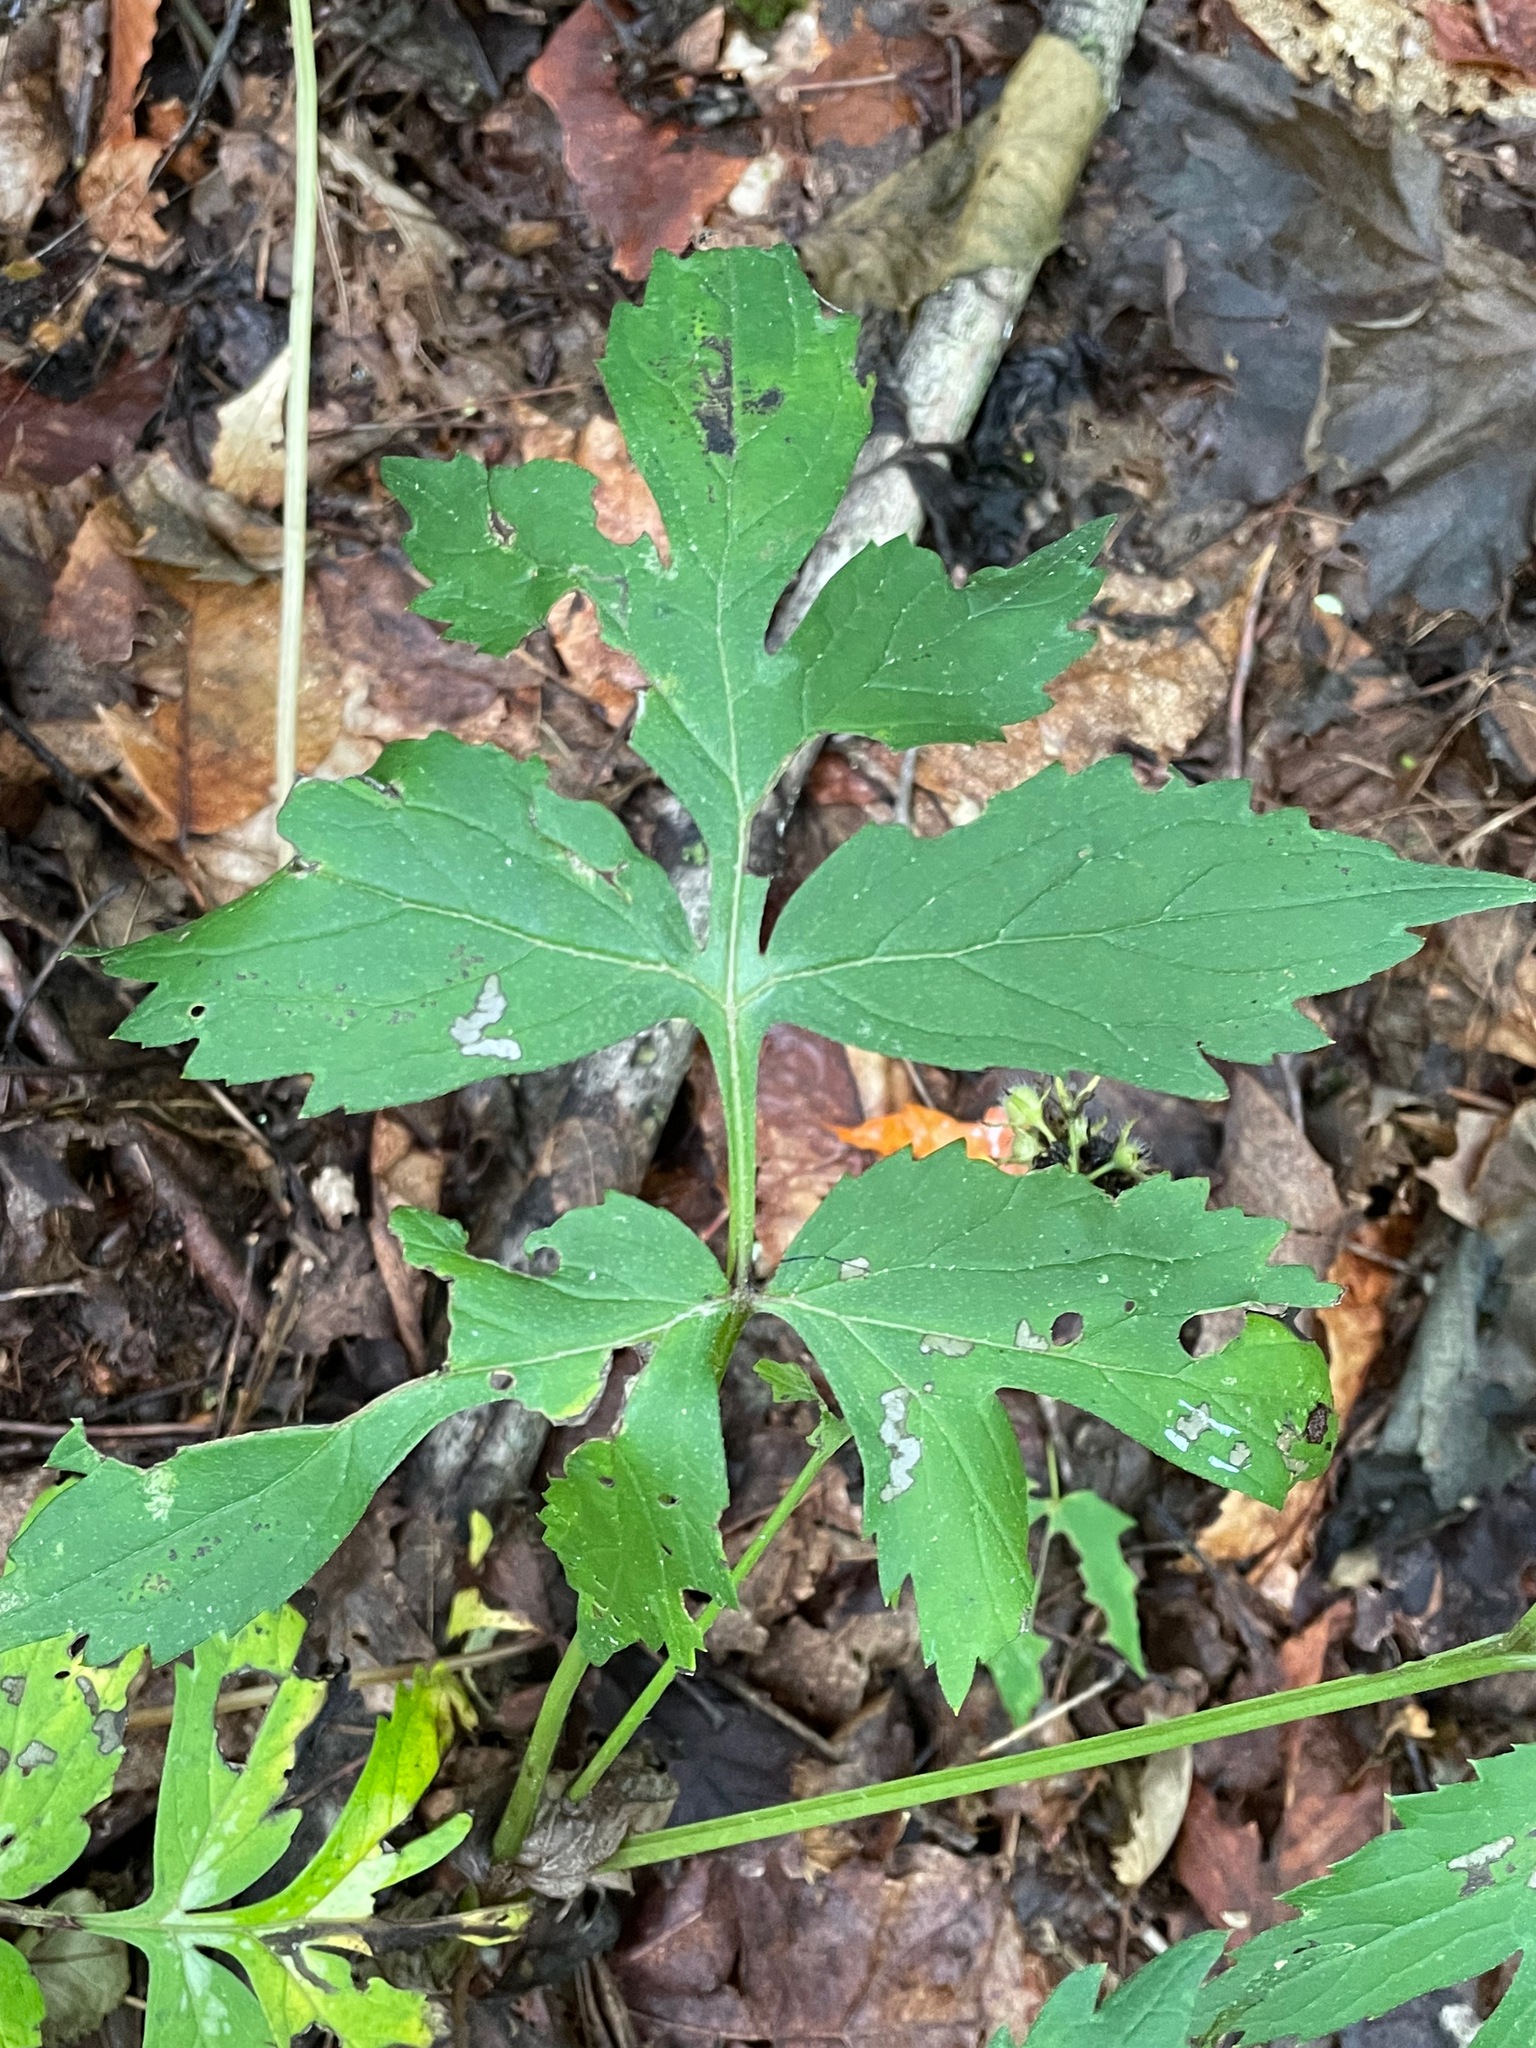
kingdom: Plantae
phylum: Tracheophyta
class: Magnoliopsida
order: Boraginales
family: Hydrophyllaceae
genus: Hydrophyllum
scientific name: Hydrophyllum virginianum
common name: Virginia waterleaf
